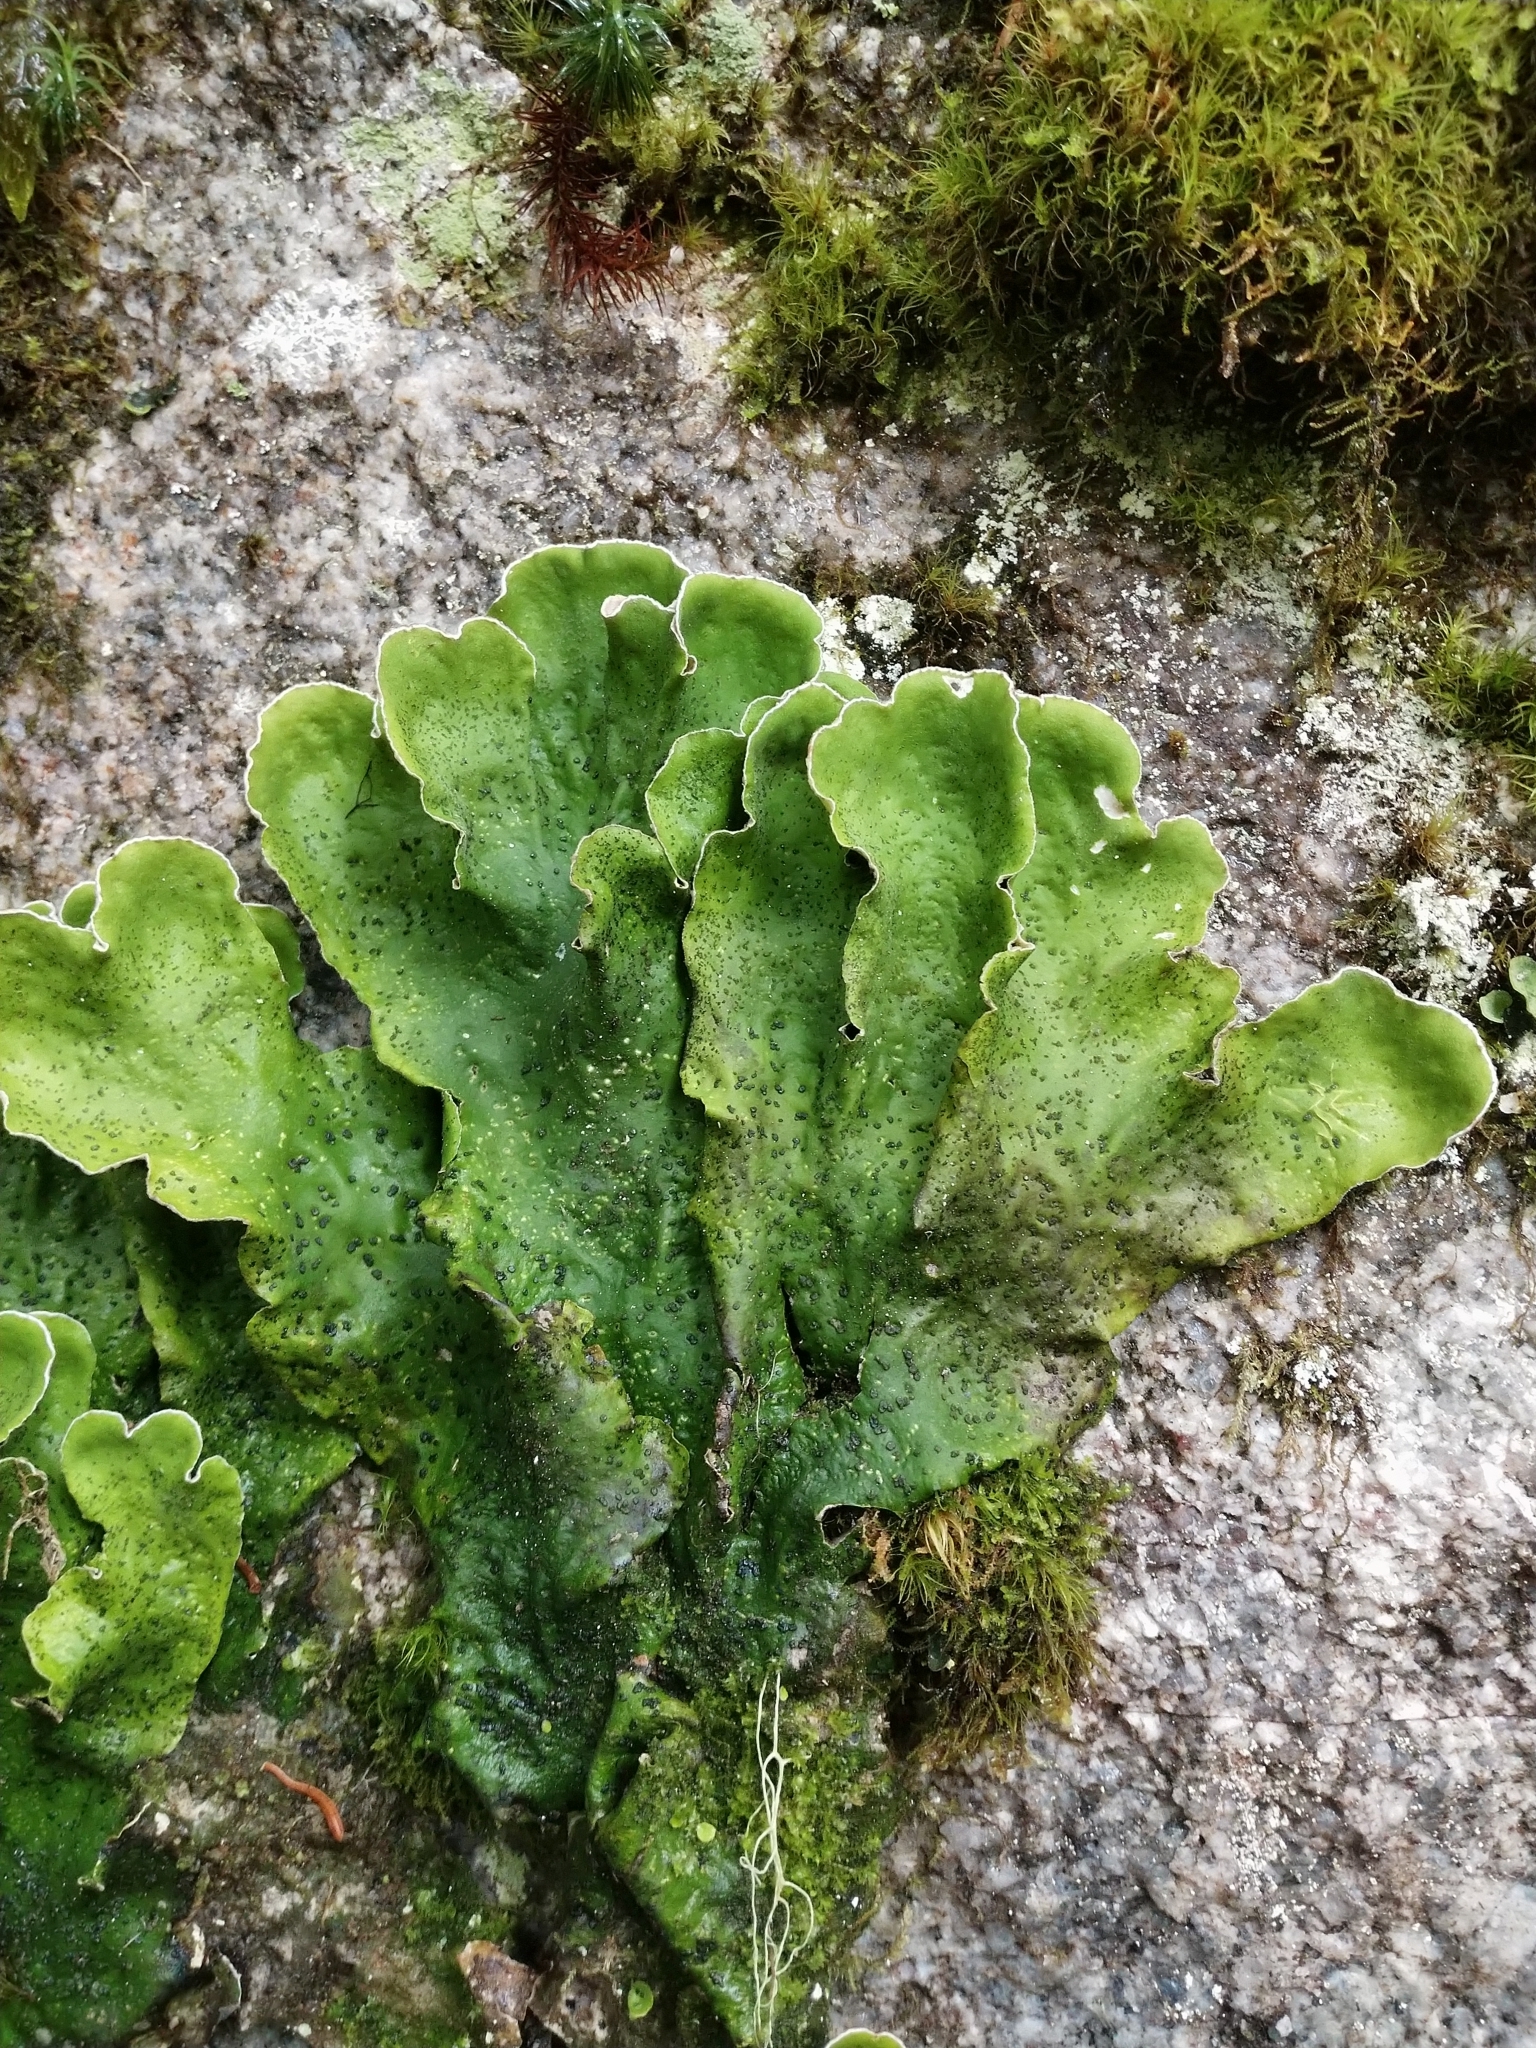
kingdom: Fungi
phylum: Ascomycota
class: Lecanoromycetes
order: Peltigerales
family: Peltigeraceae
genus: Peltigera
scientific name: Peltigera aphthosa
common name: Common freckle pelt lichen
